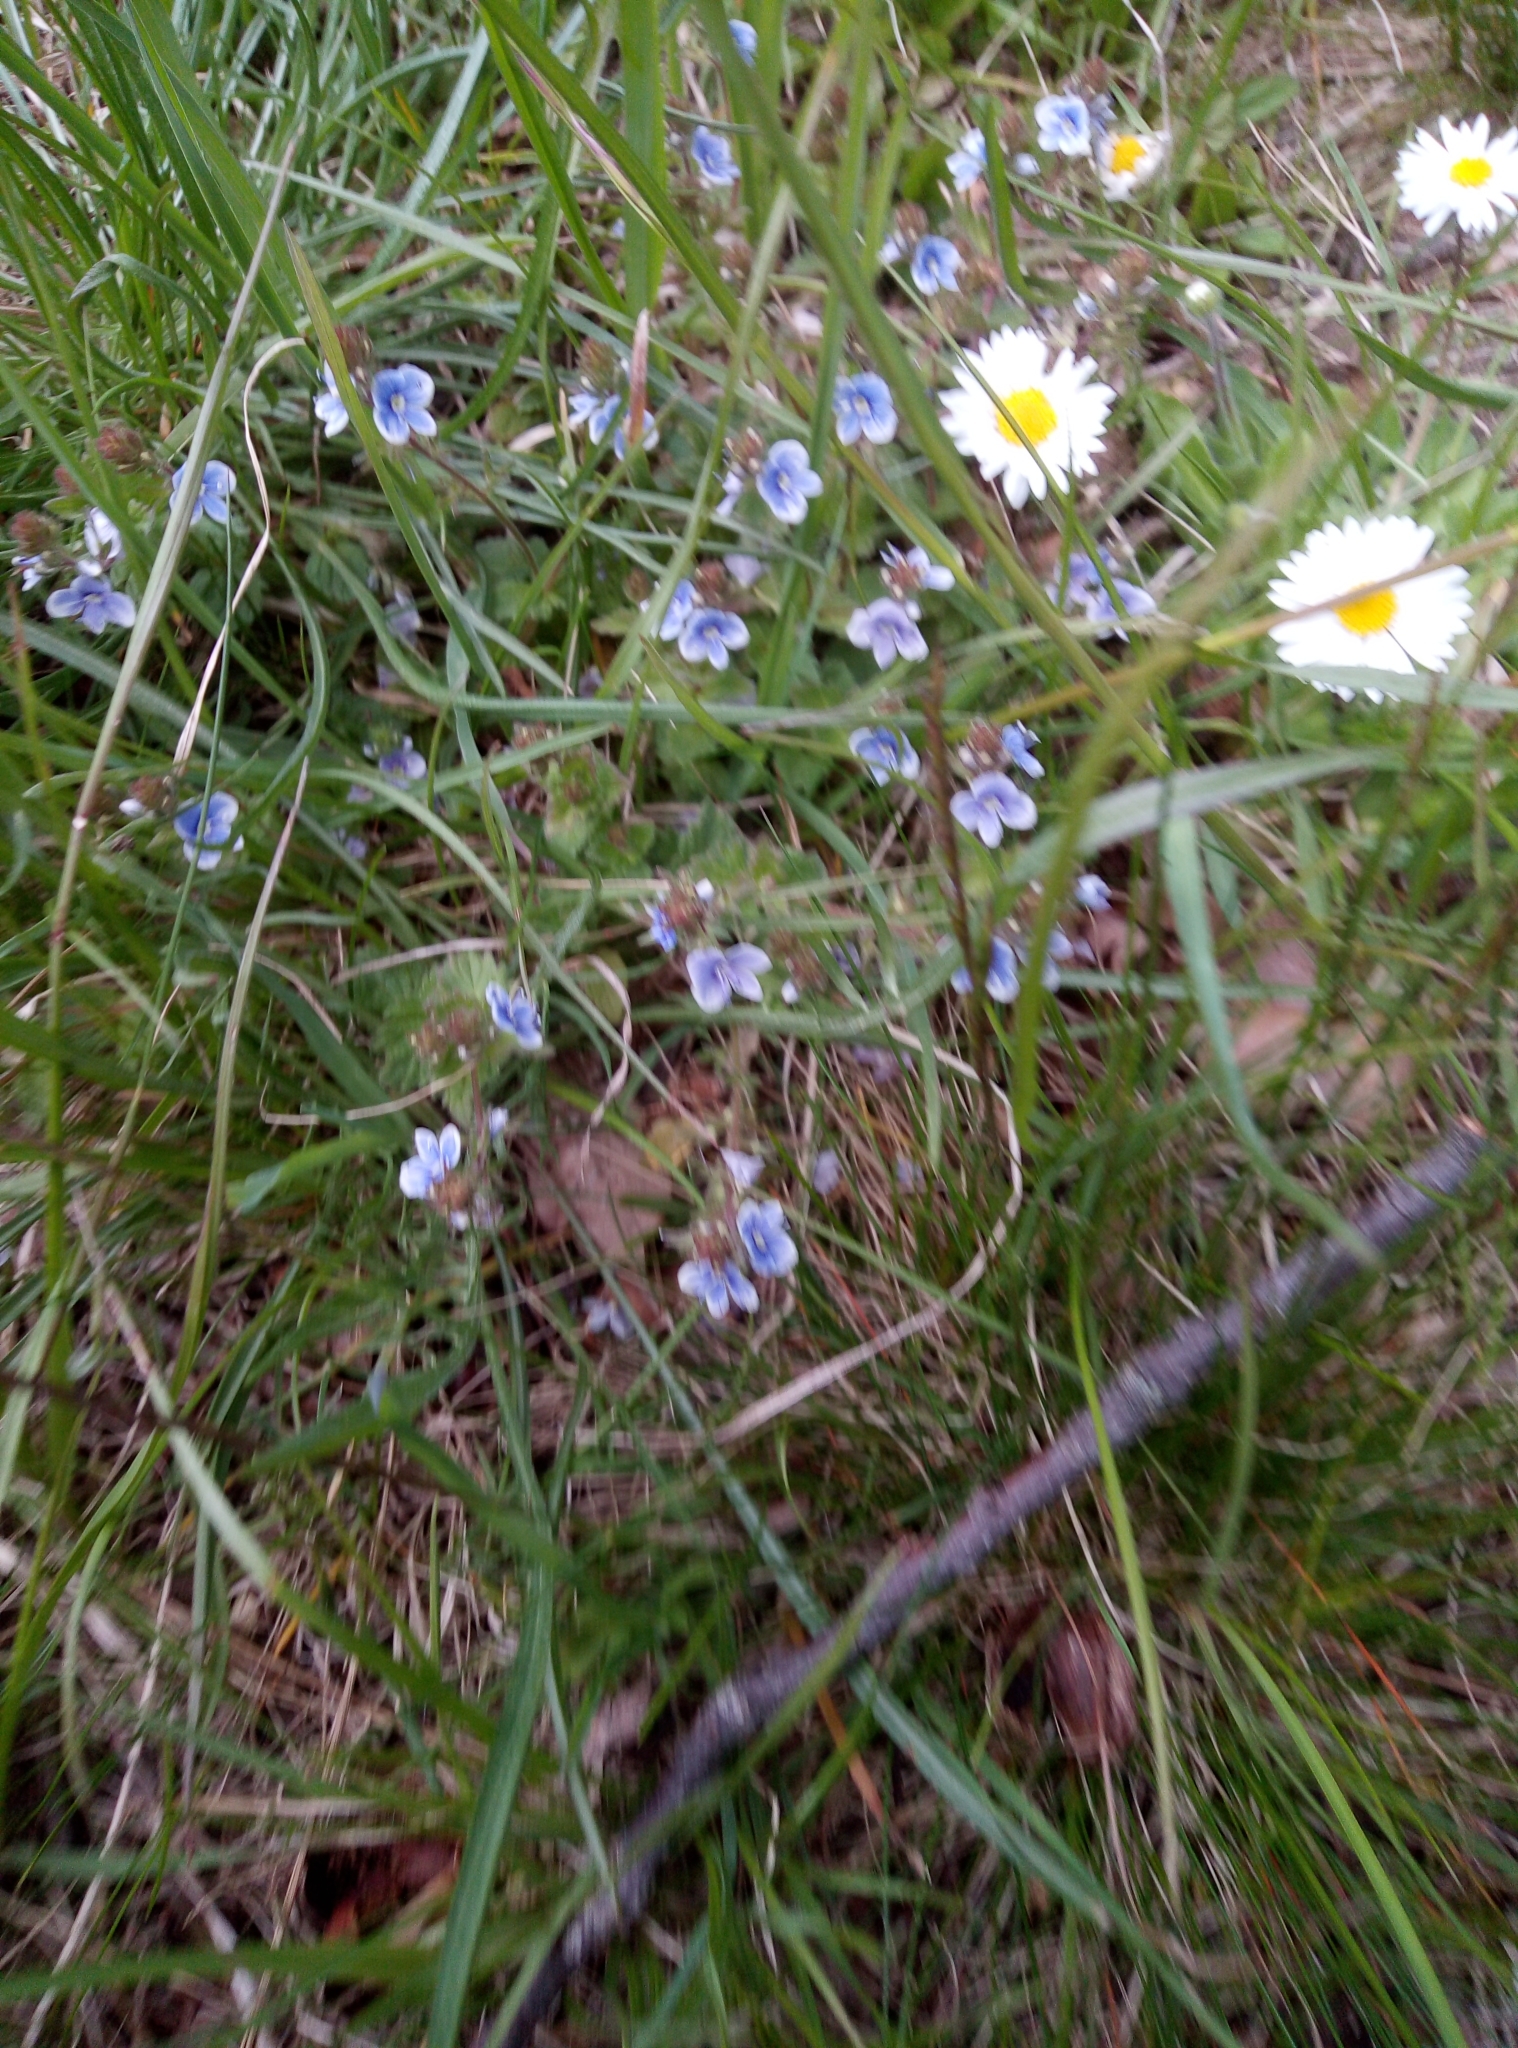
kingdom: Plantae
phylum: Tracheophyta
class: Magnoliopsida
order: Lamiales
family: Plantaginaceae
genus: Veronica
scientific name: Veronica vindobonensis
